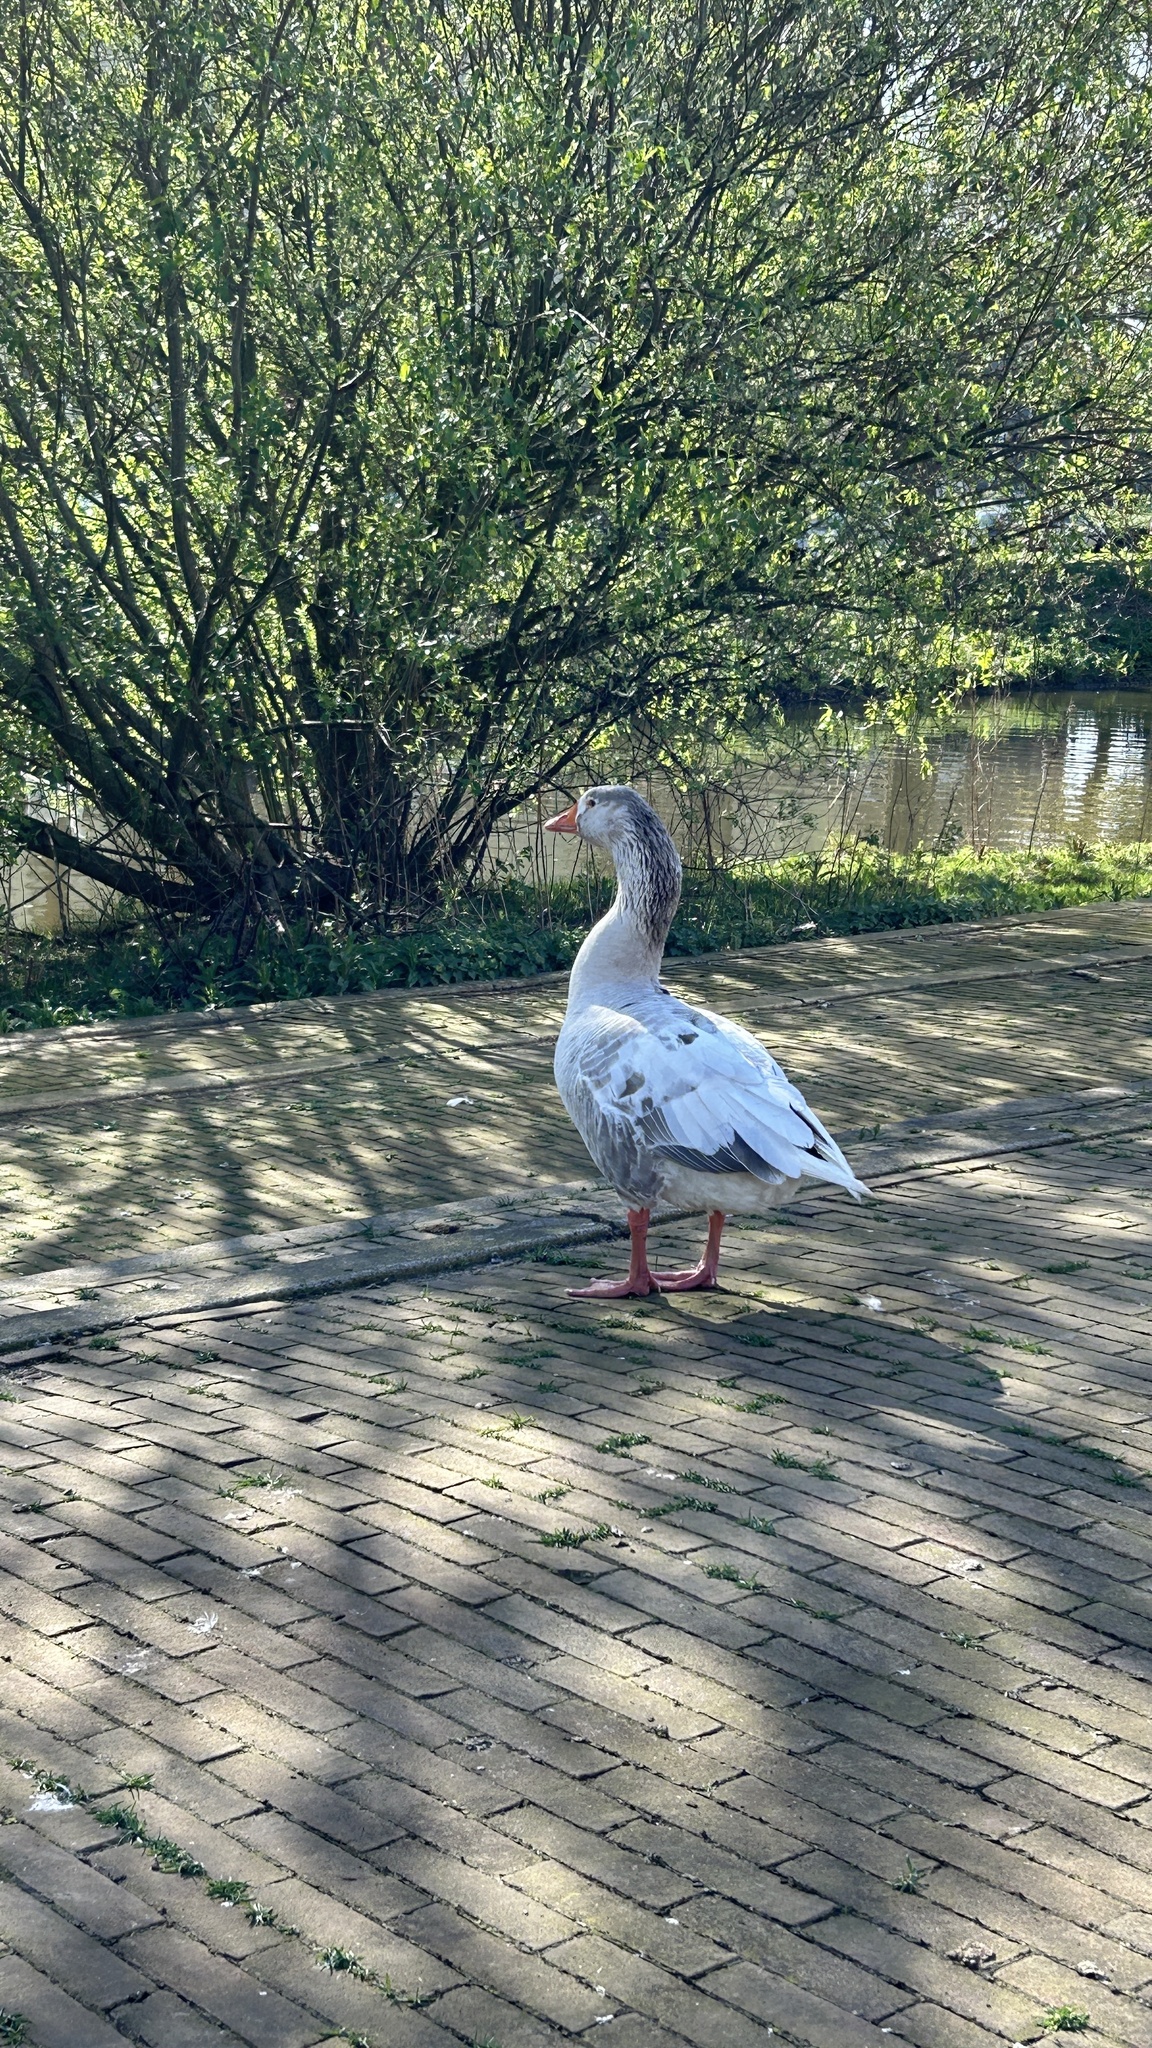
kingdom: Animalia
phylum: Chordata
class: Aves
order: Anseriformes
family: Anatidae
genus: Anser
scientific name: Anser
